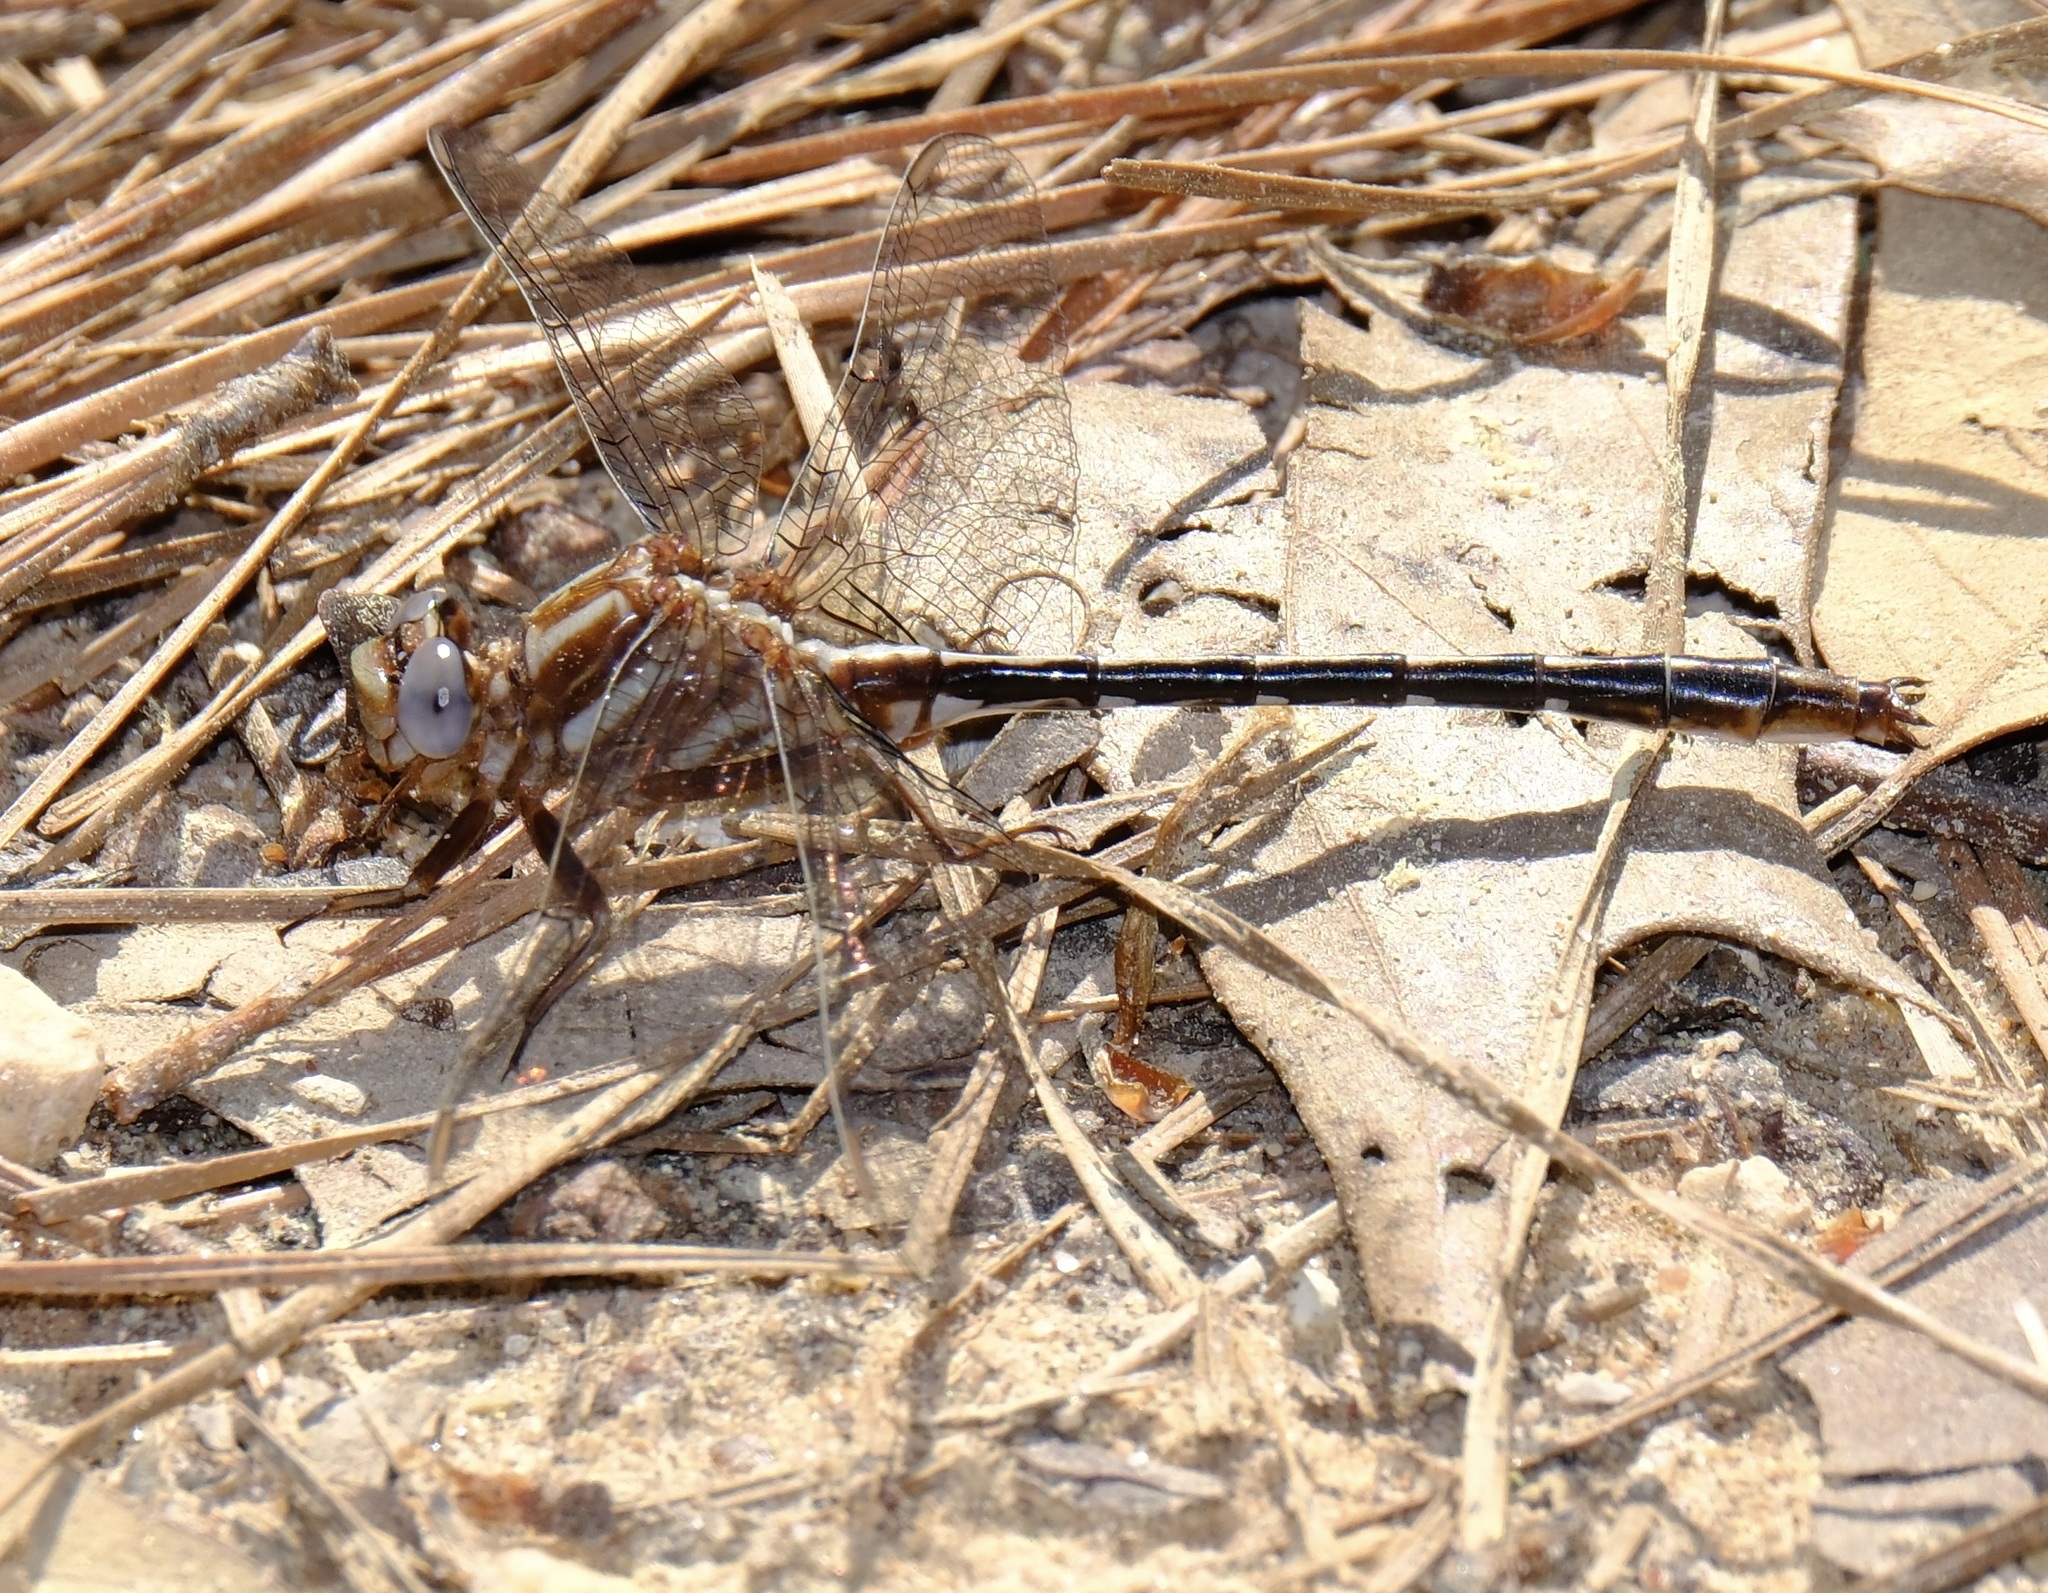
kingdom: Animalia
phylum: Arthropoda
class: Insecta
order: Odonata
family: Gomphidae
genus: Phanogomphus
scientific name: Phanogomphus lividus
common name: Ashy clubtail
